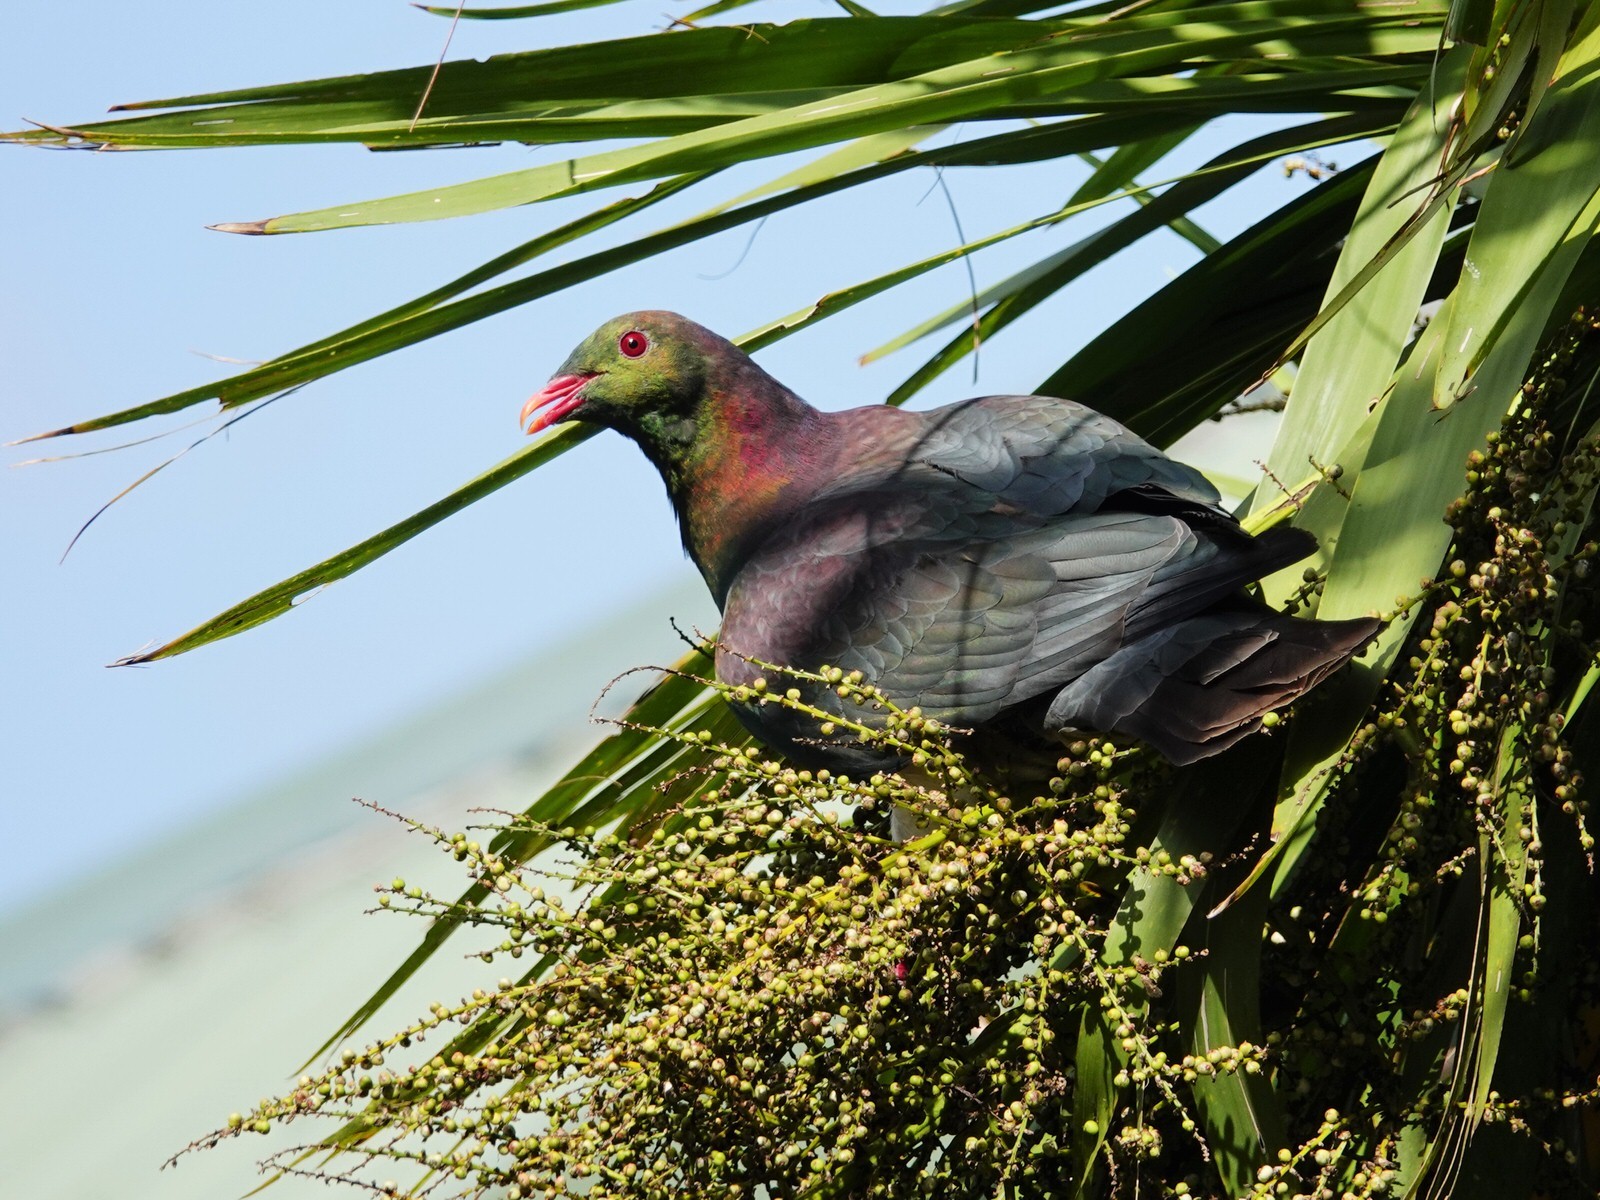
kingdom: Animalia
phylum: Chordata
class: Aves
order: Columbiformes
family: Columbidae
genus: Hemiphaga
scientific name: Hemiphaga novaeseelandiae
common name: New zealand pigeon
